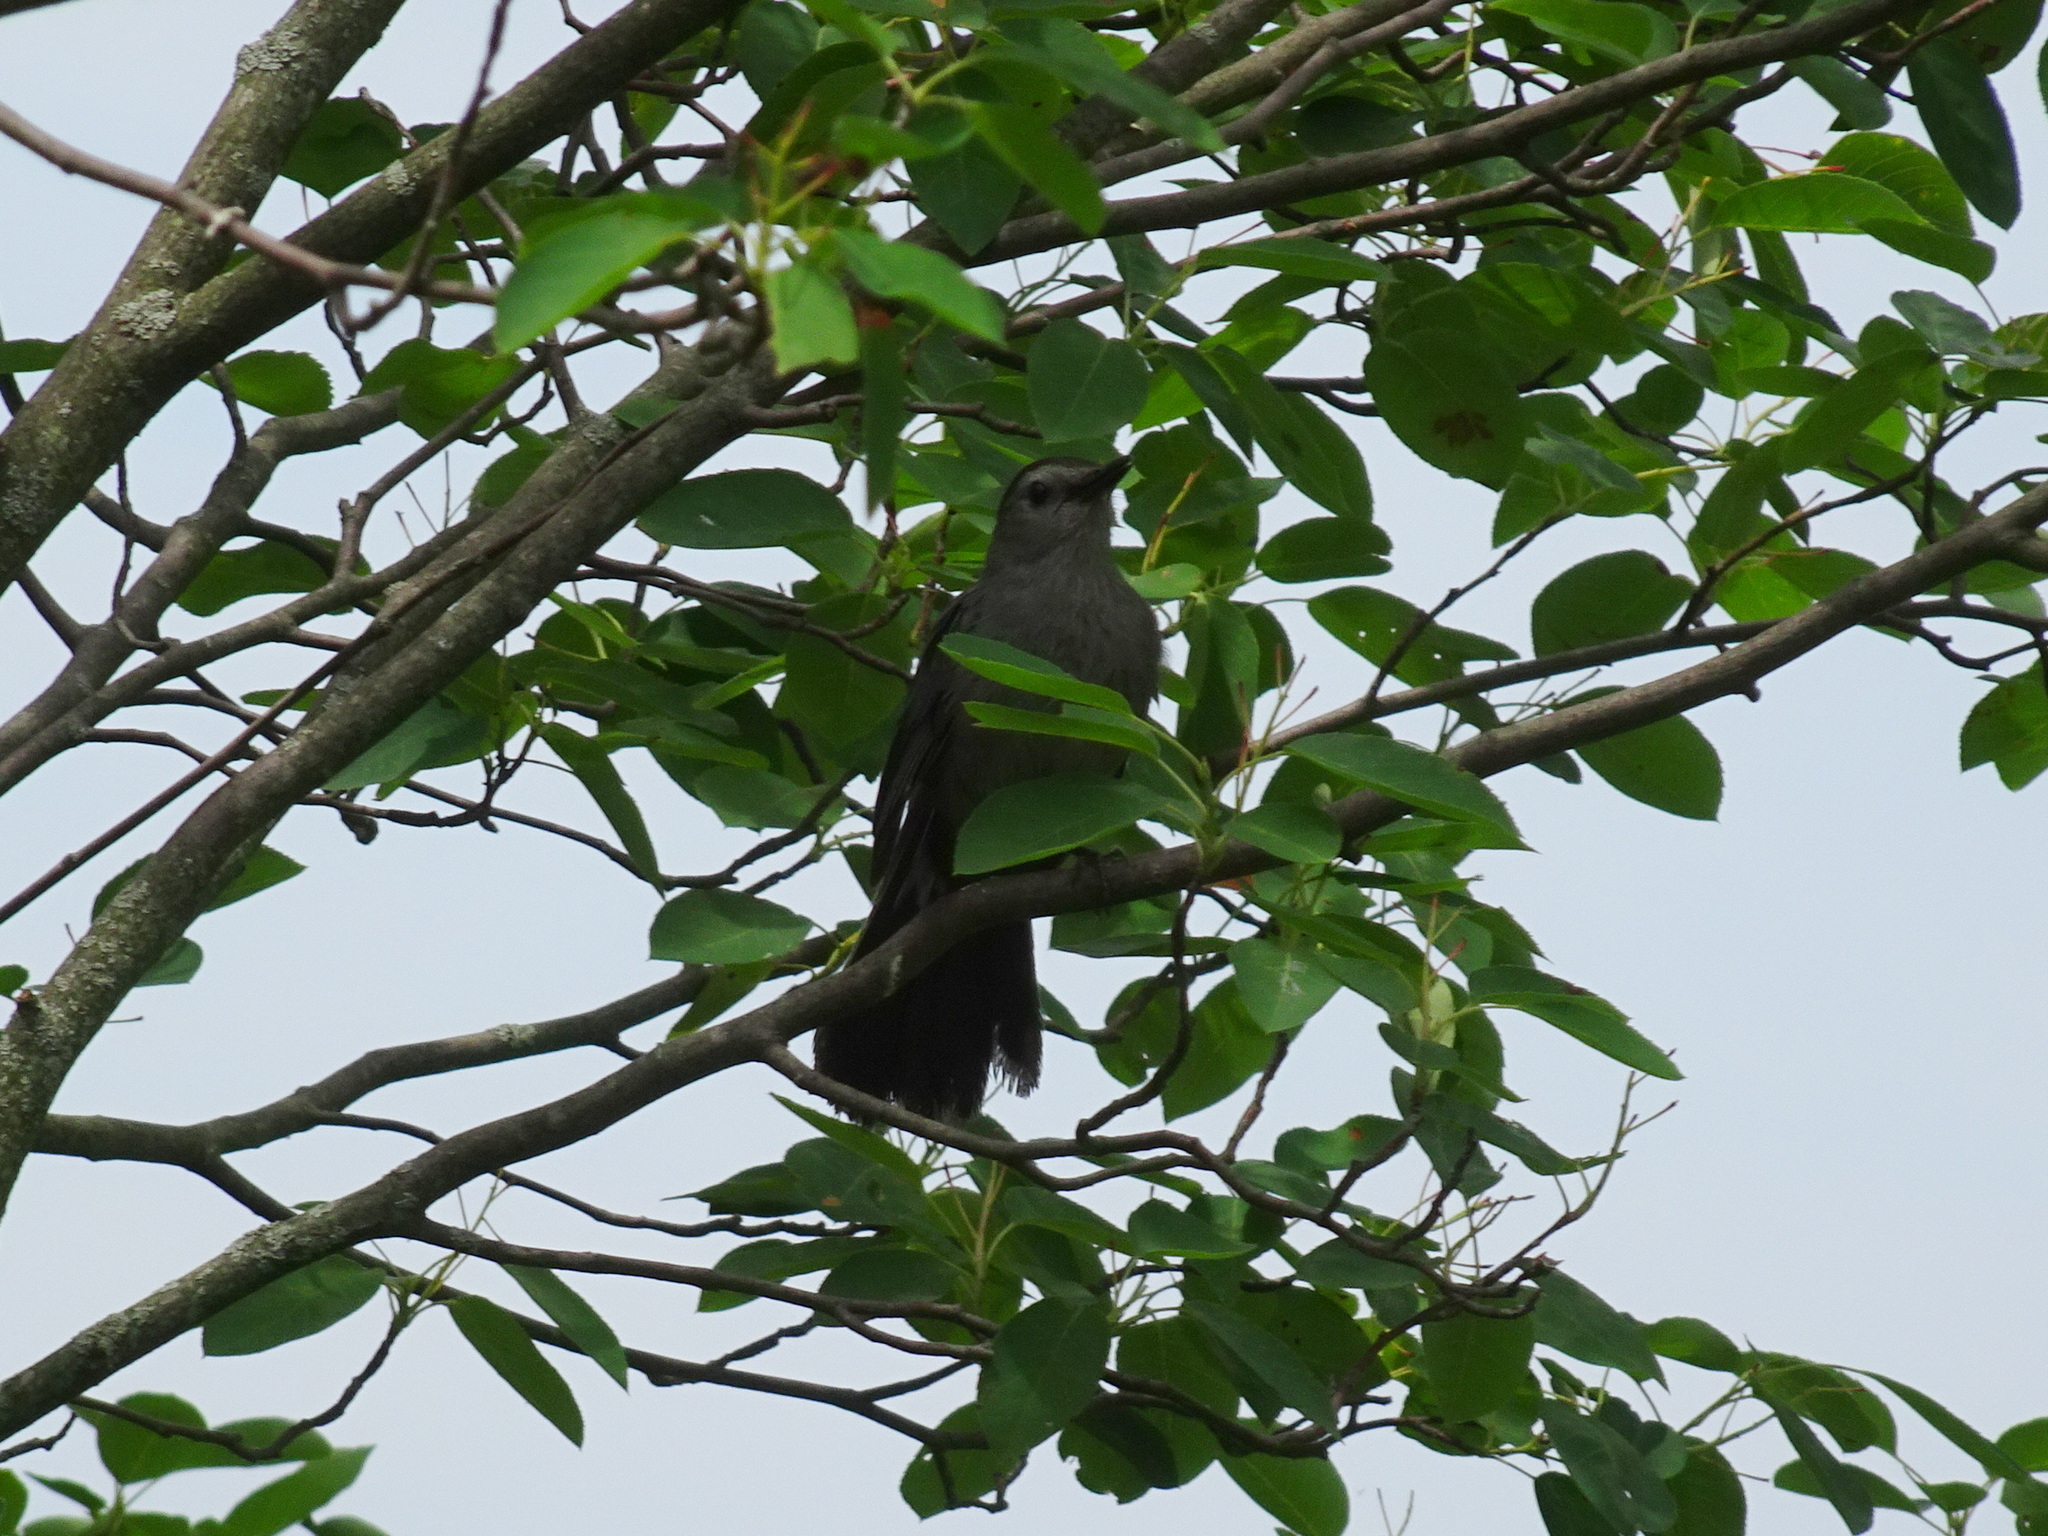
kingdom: Animalia
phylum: Chordata
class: Aves
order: Passeriformes
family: Mimidae
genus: Dumetella
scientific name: Dumetella carolinensis
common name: Gray catbird
